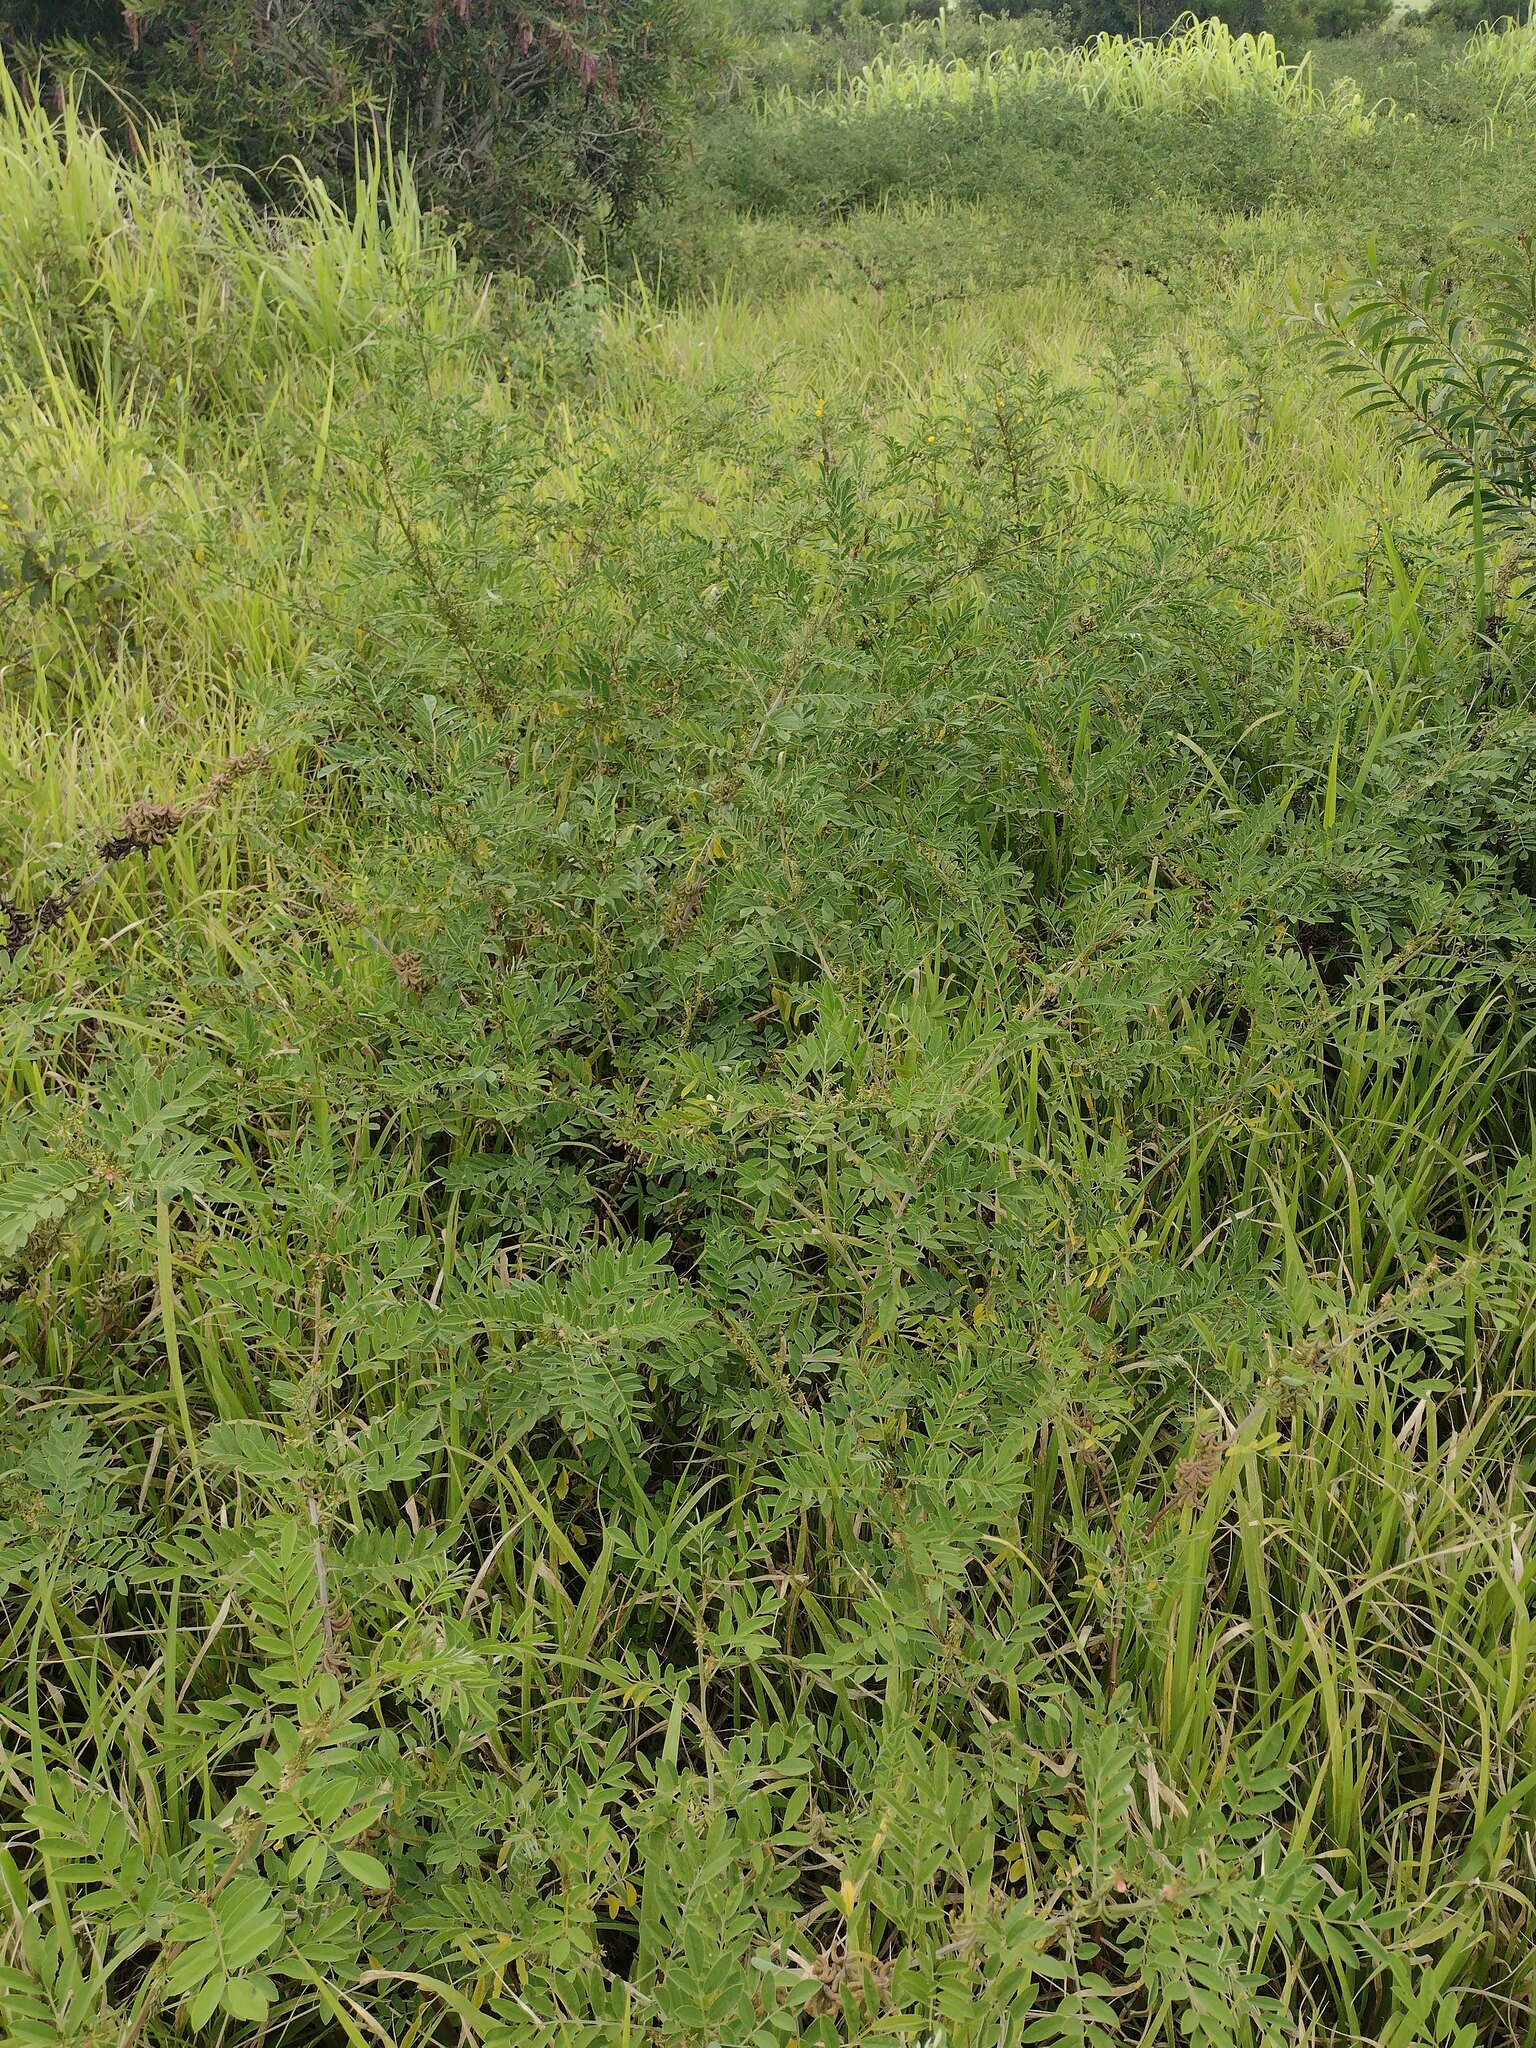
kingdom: Plantae
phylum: Tracheophyta
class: Magnoliopsida
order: Fabales
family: Fabaceae
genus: Indigofera
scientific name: Indigofera suffruticosa
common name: Anil de pasto
